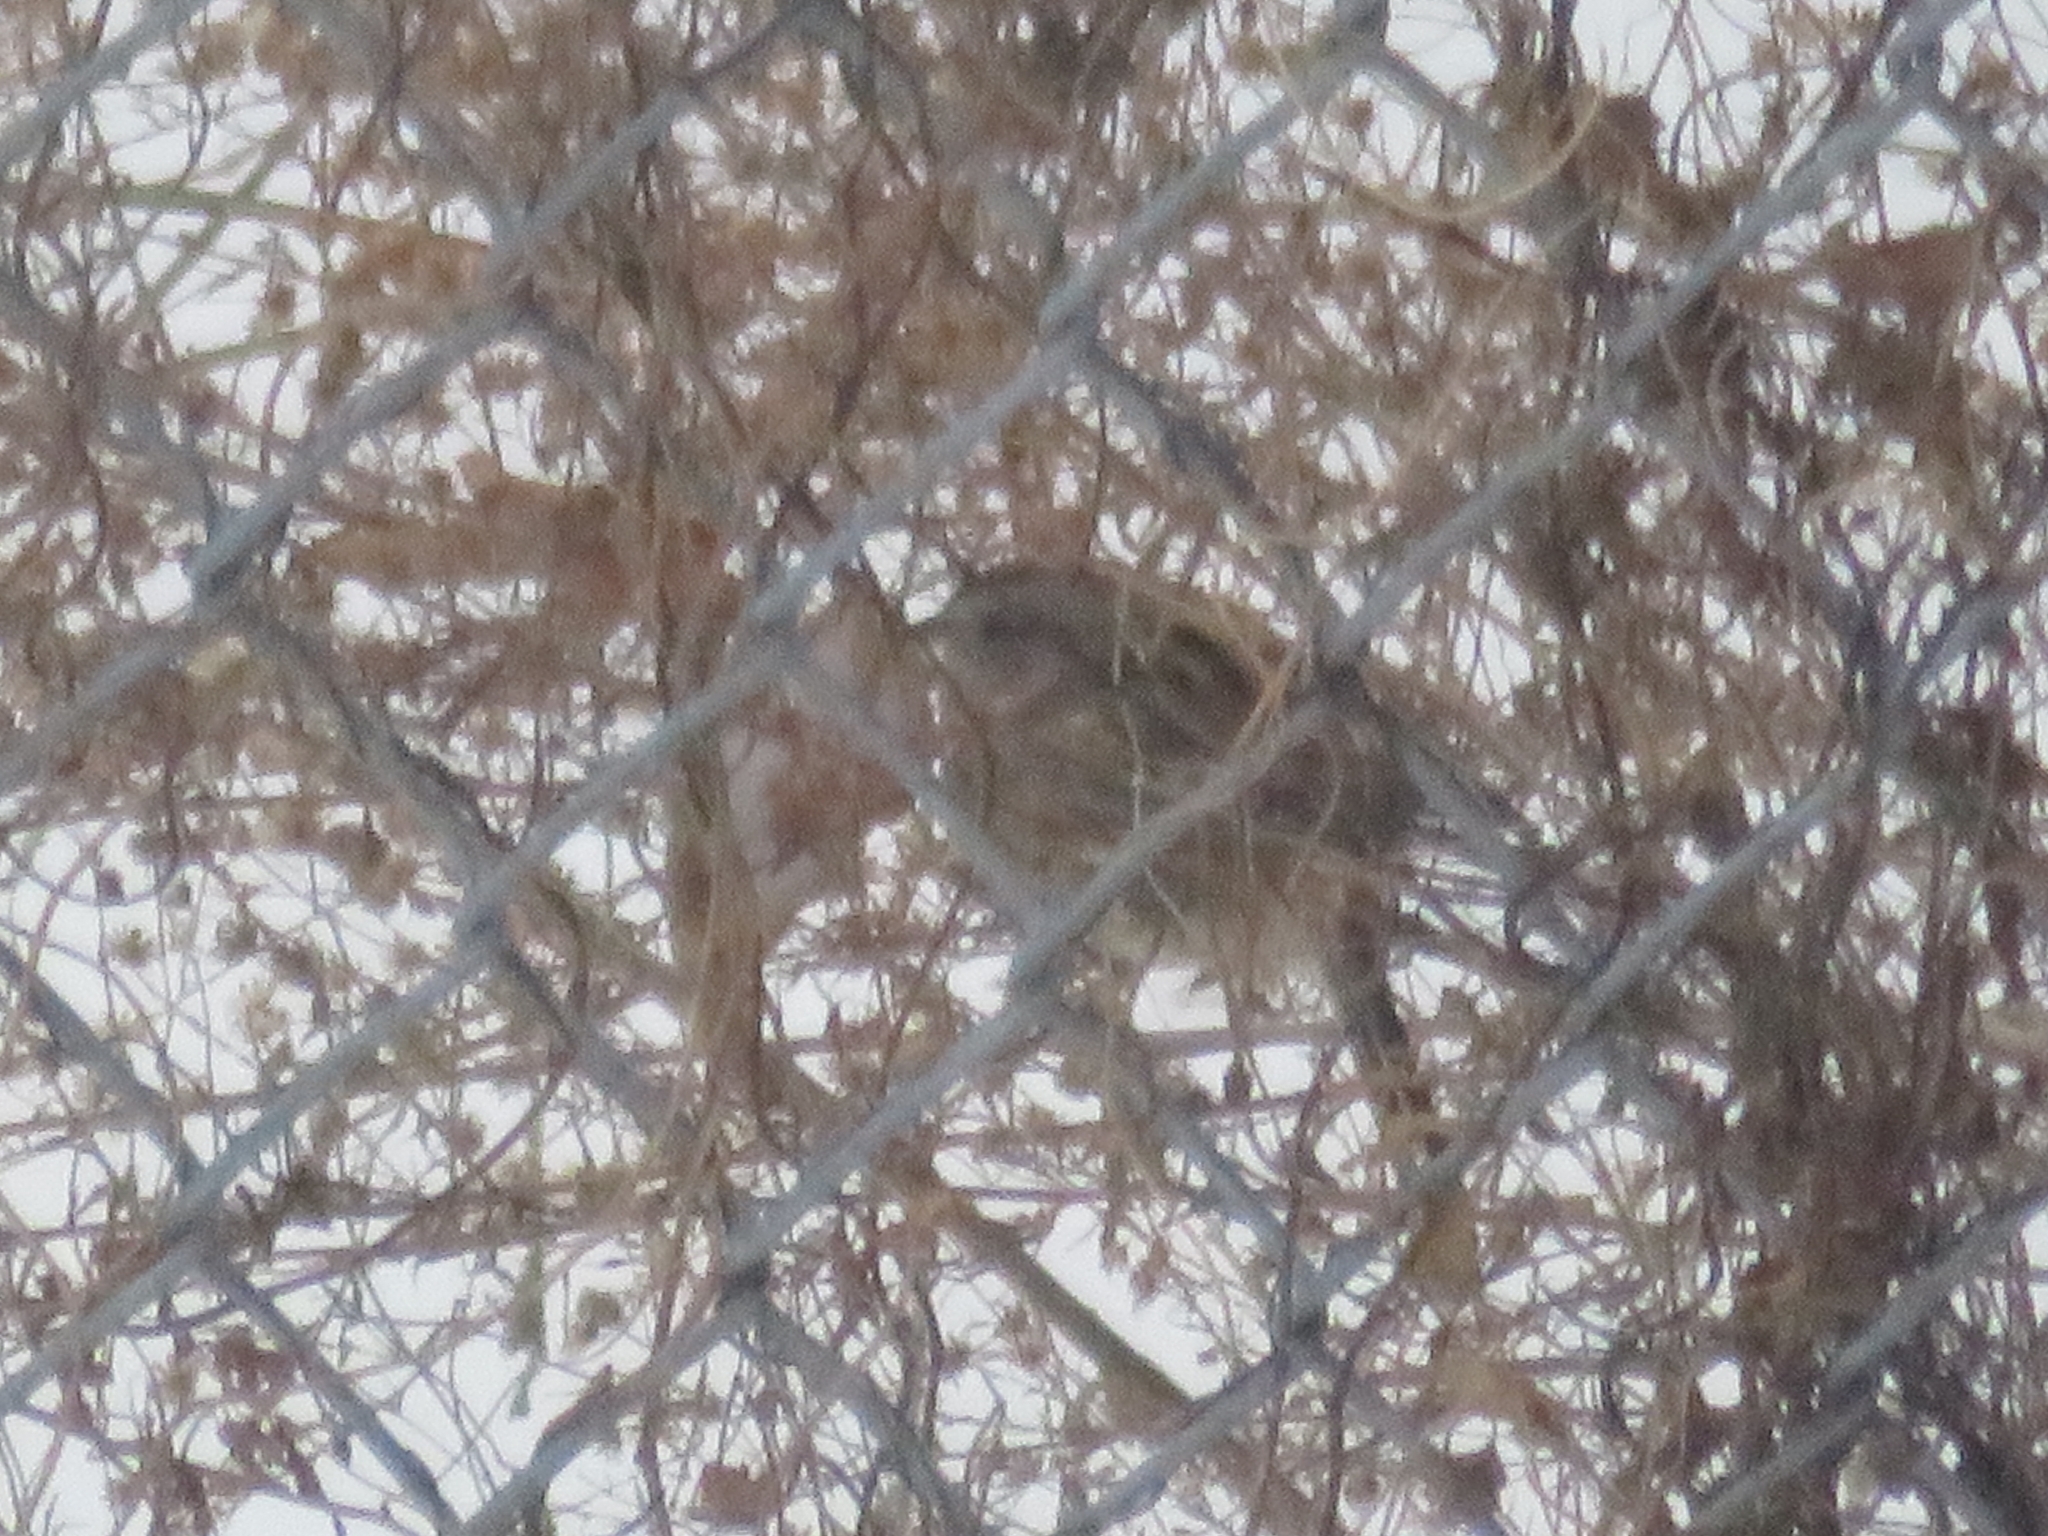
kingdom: Animalia
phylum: Chordata
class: Aves
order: Passeriformes
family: Passerellidae
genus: Spizelloides
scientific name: Spizelloides arborea
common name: American tree sparrow
